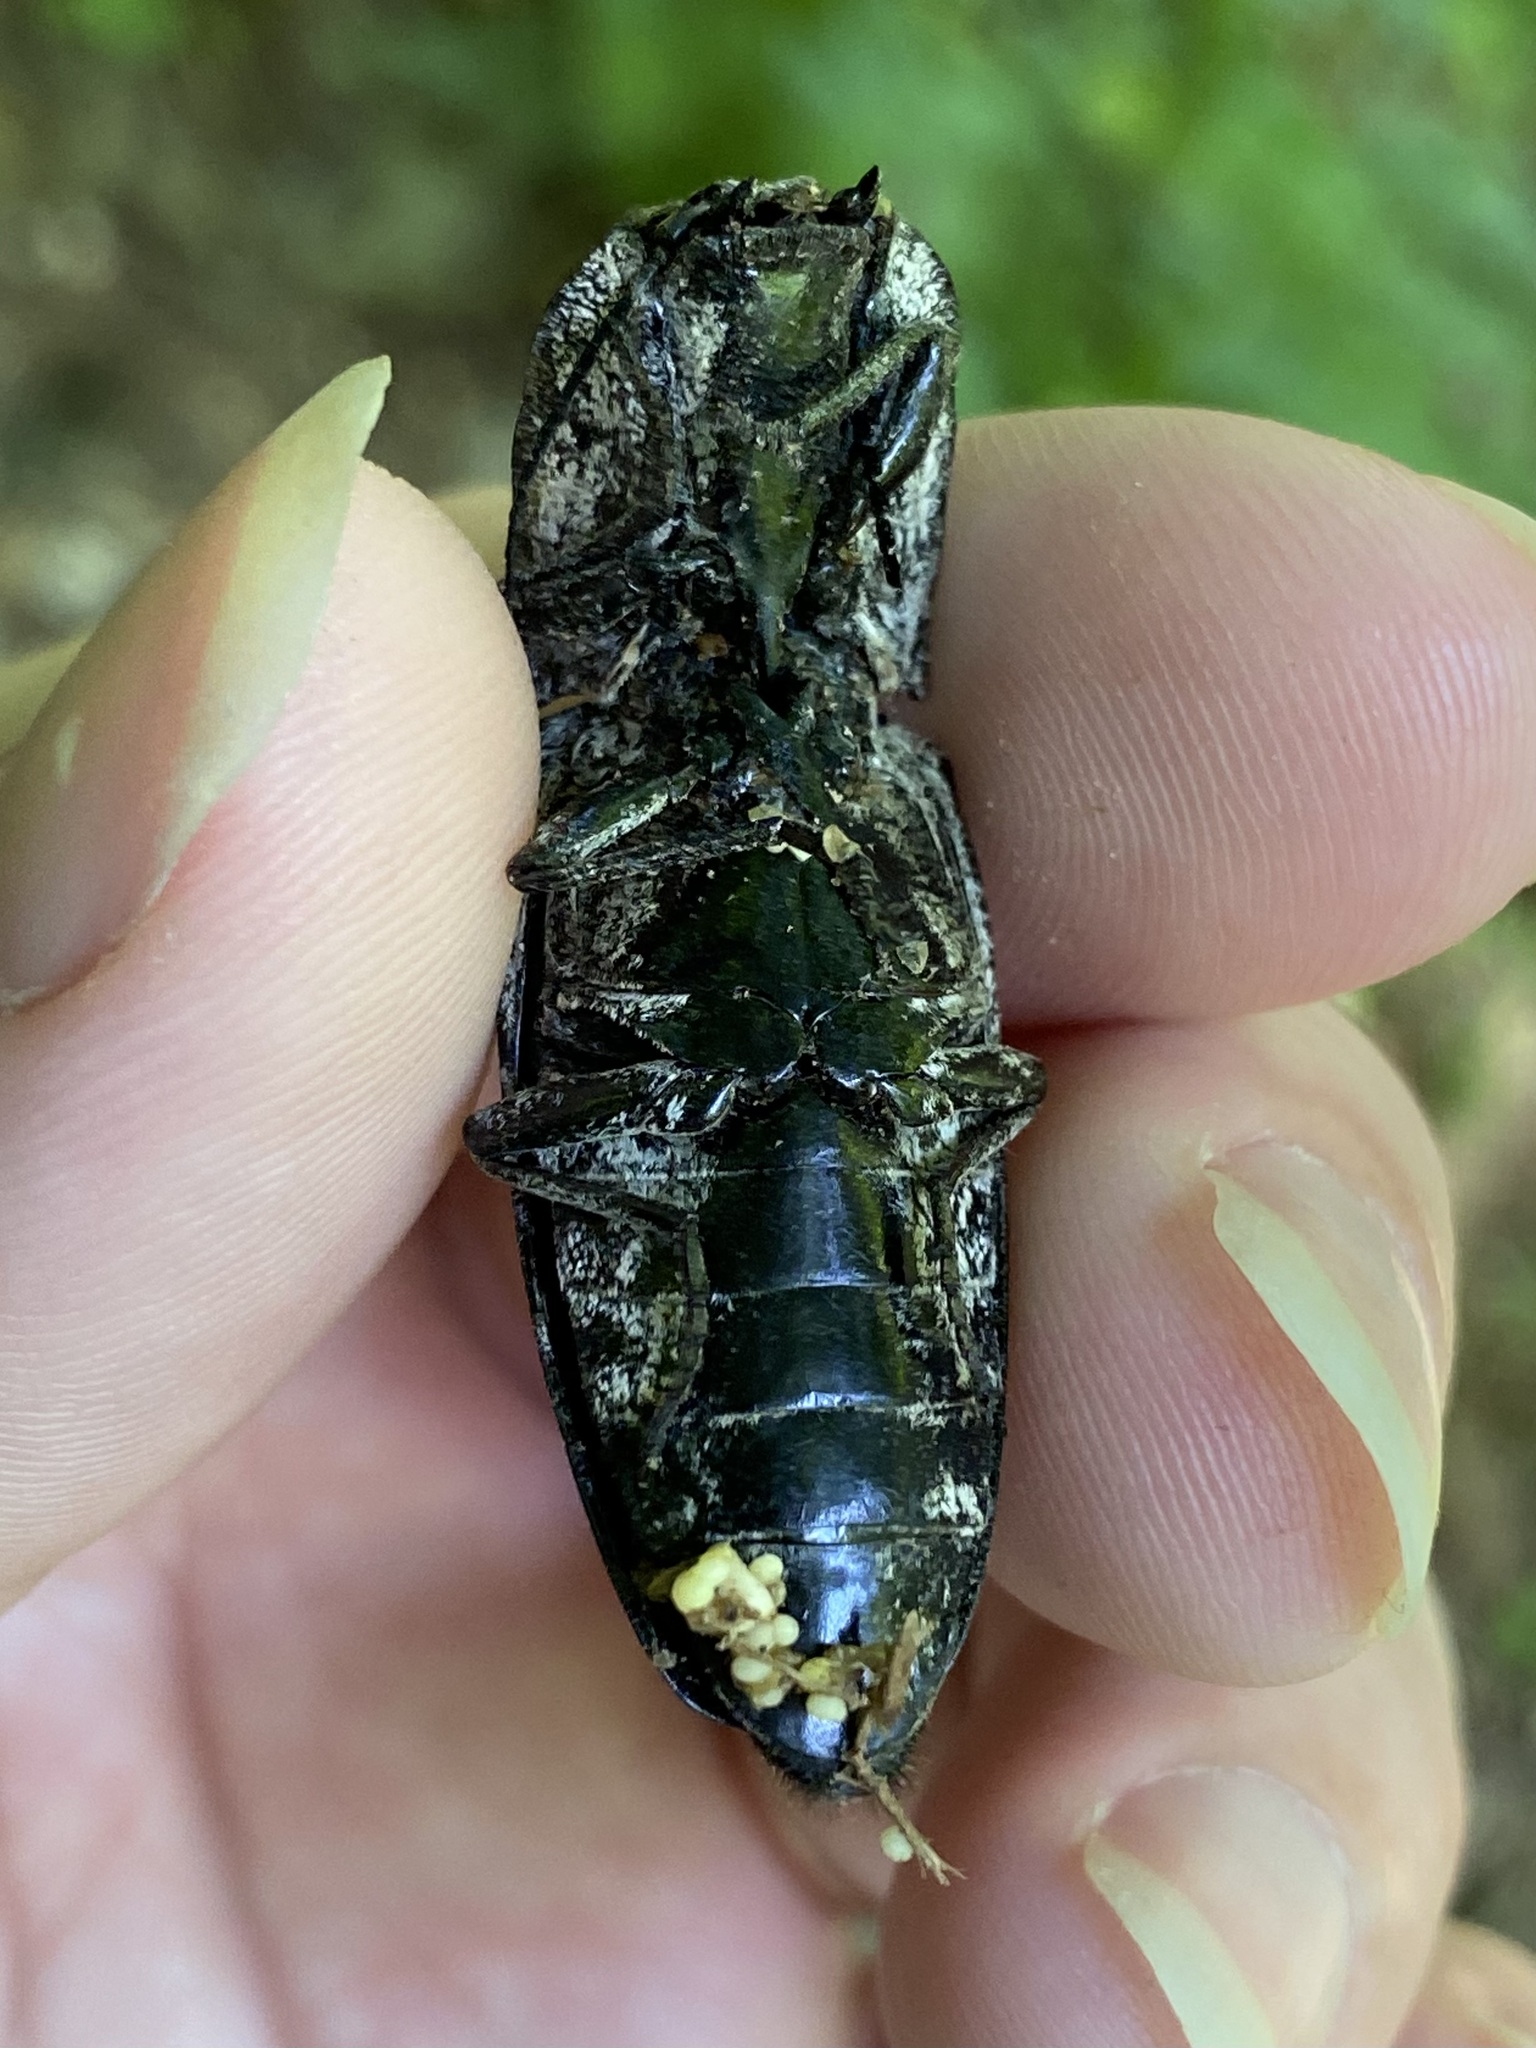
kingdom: Animalia
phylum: Arthropoda
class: Insecta
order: Coleoptera
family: Elateridae
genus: Alaus
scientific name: Alaus oculatus
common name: Eastern eyed click beetle
